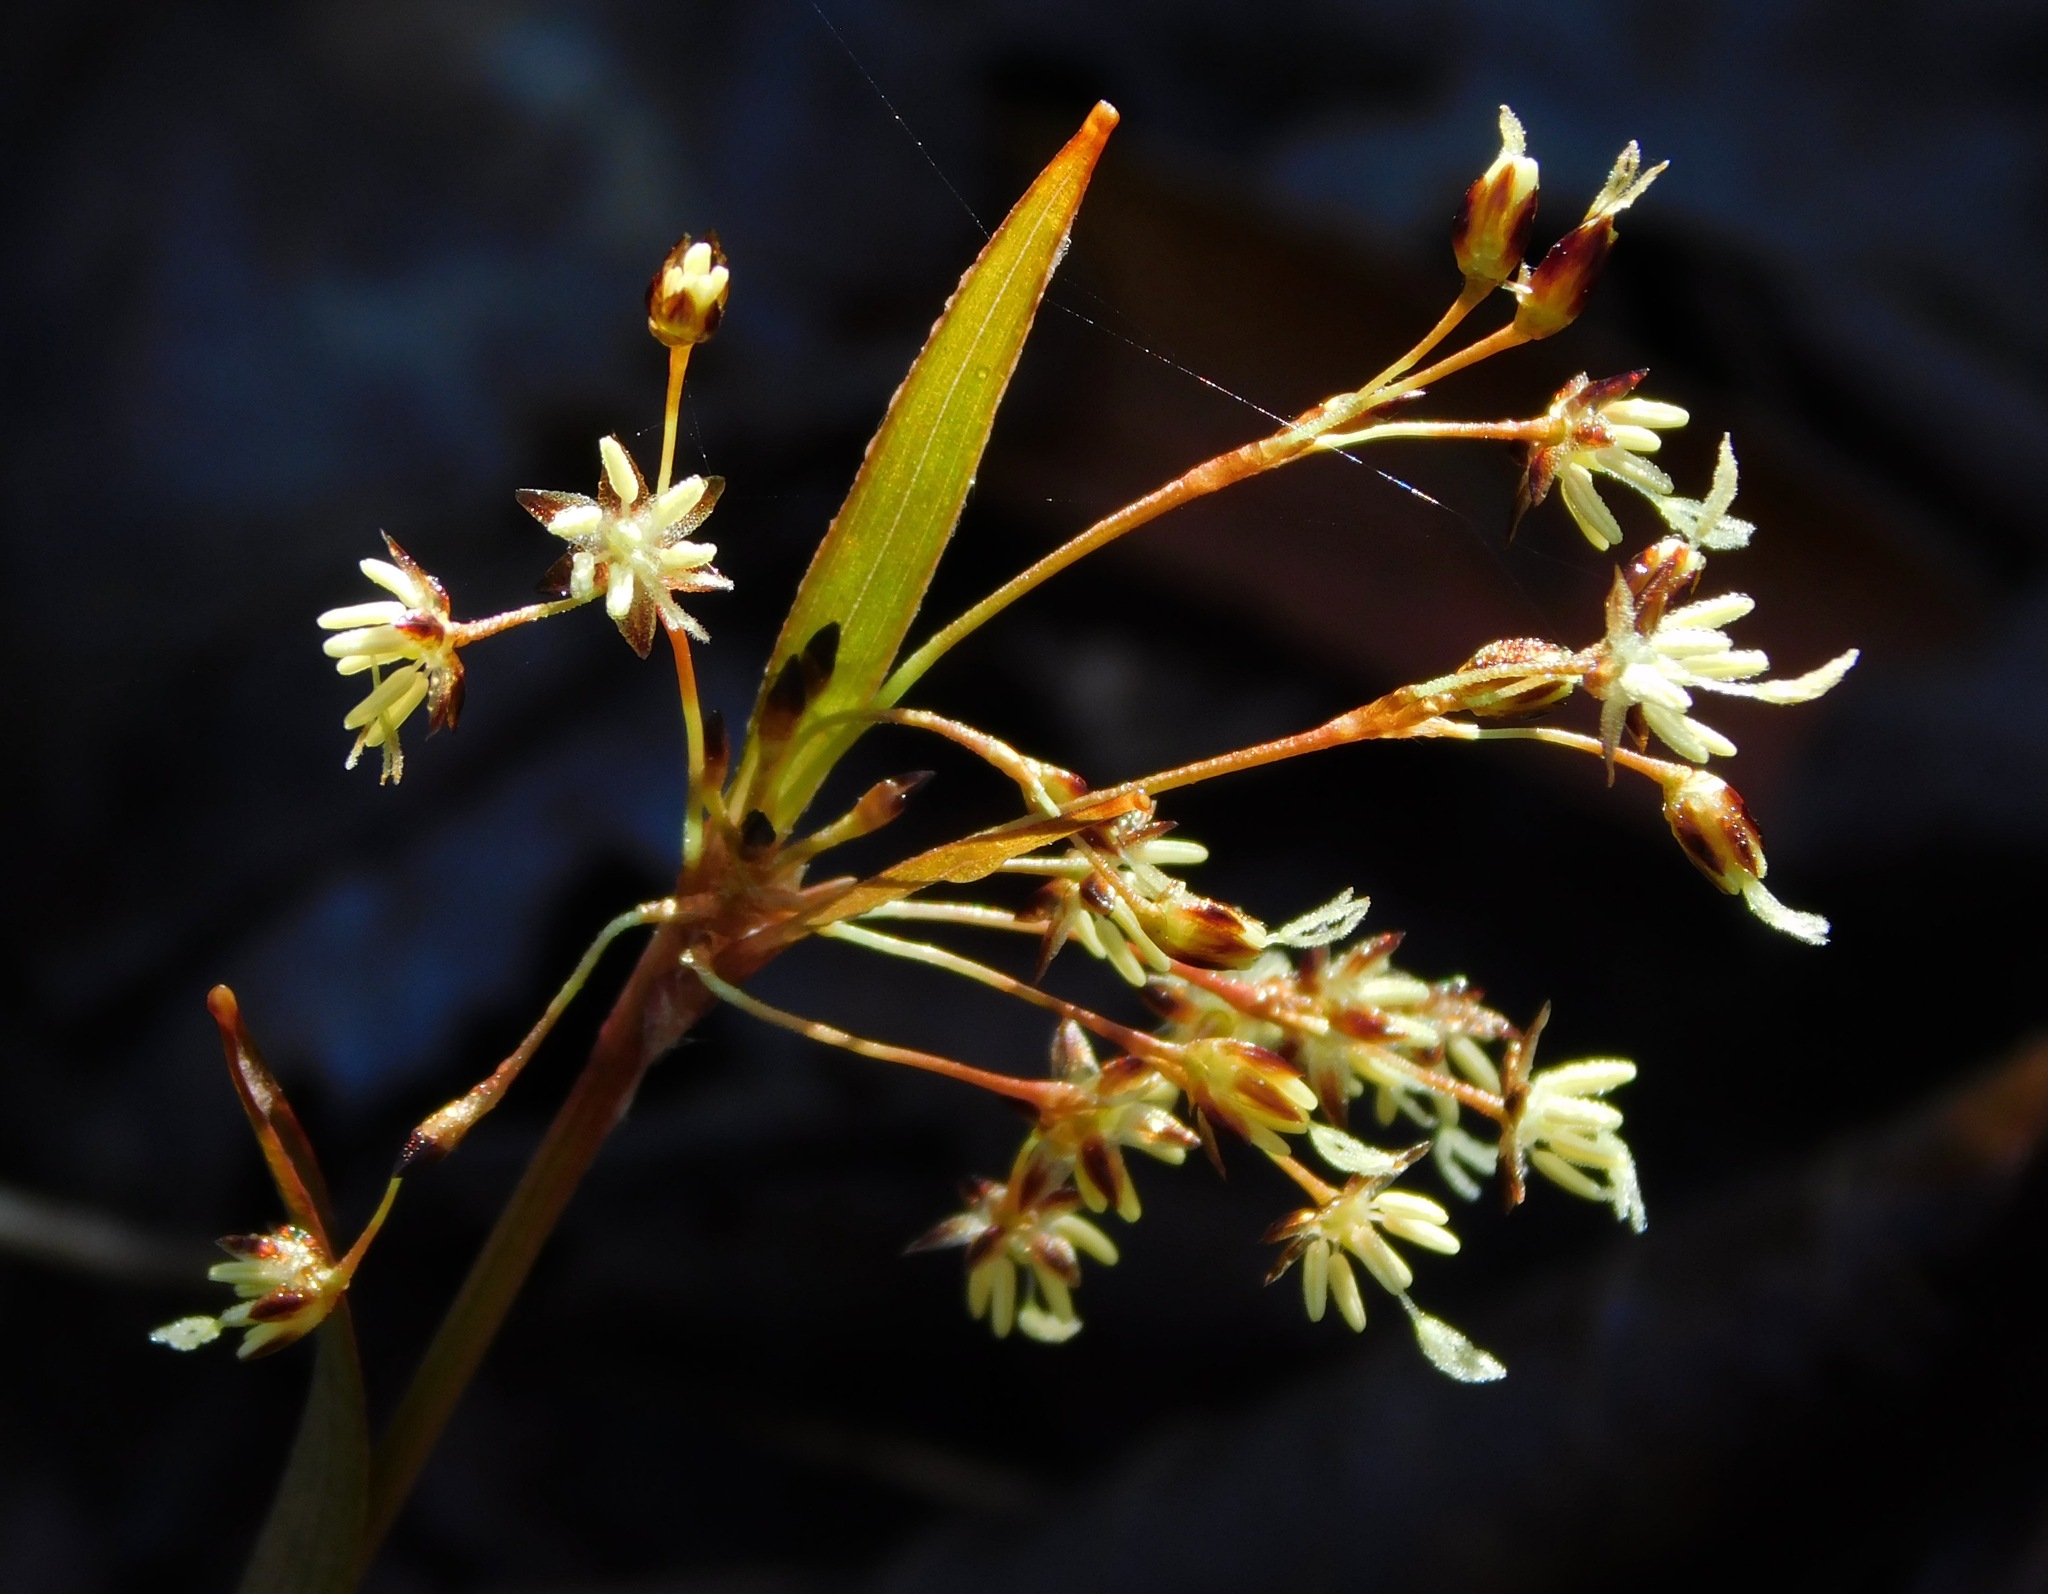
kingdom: Plantae
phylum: Tracheophyta
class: Liliopsida
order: Poales
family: Juncaceae
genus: Luzula
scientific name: Luzula acuminata
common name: Hairy woodrush
